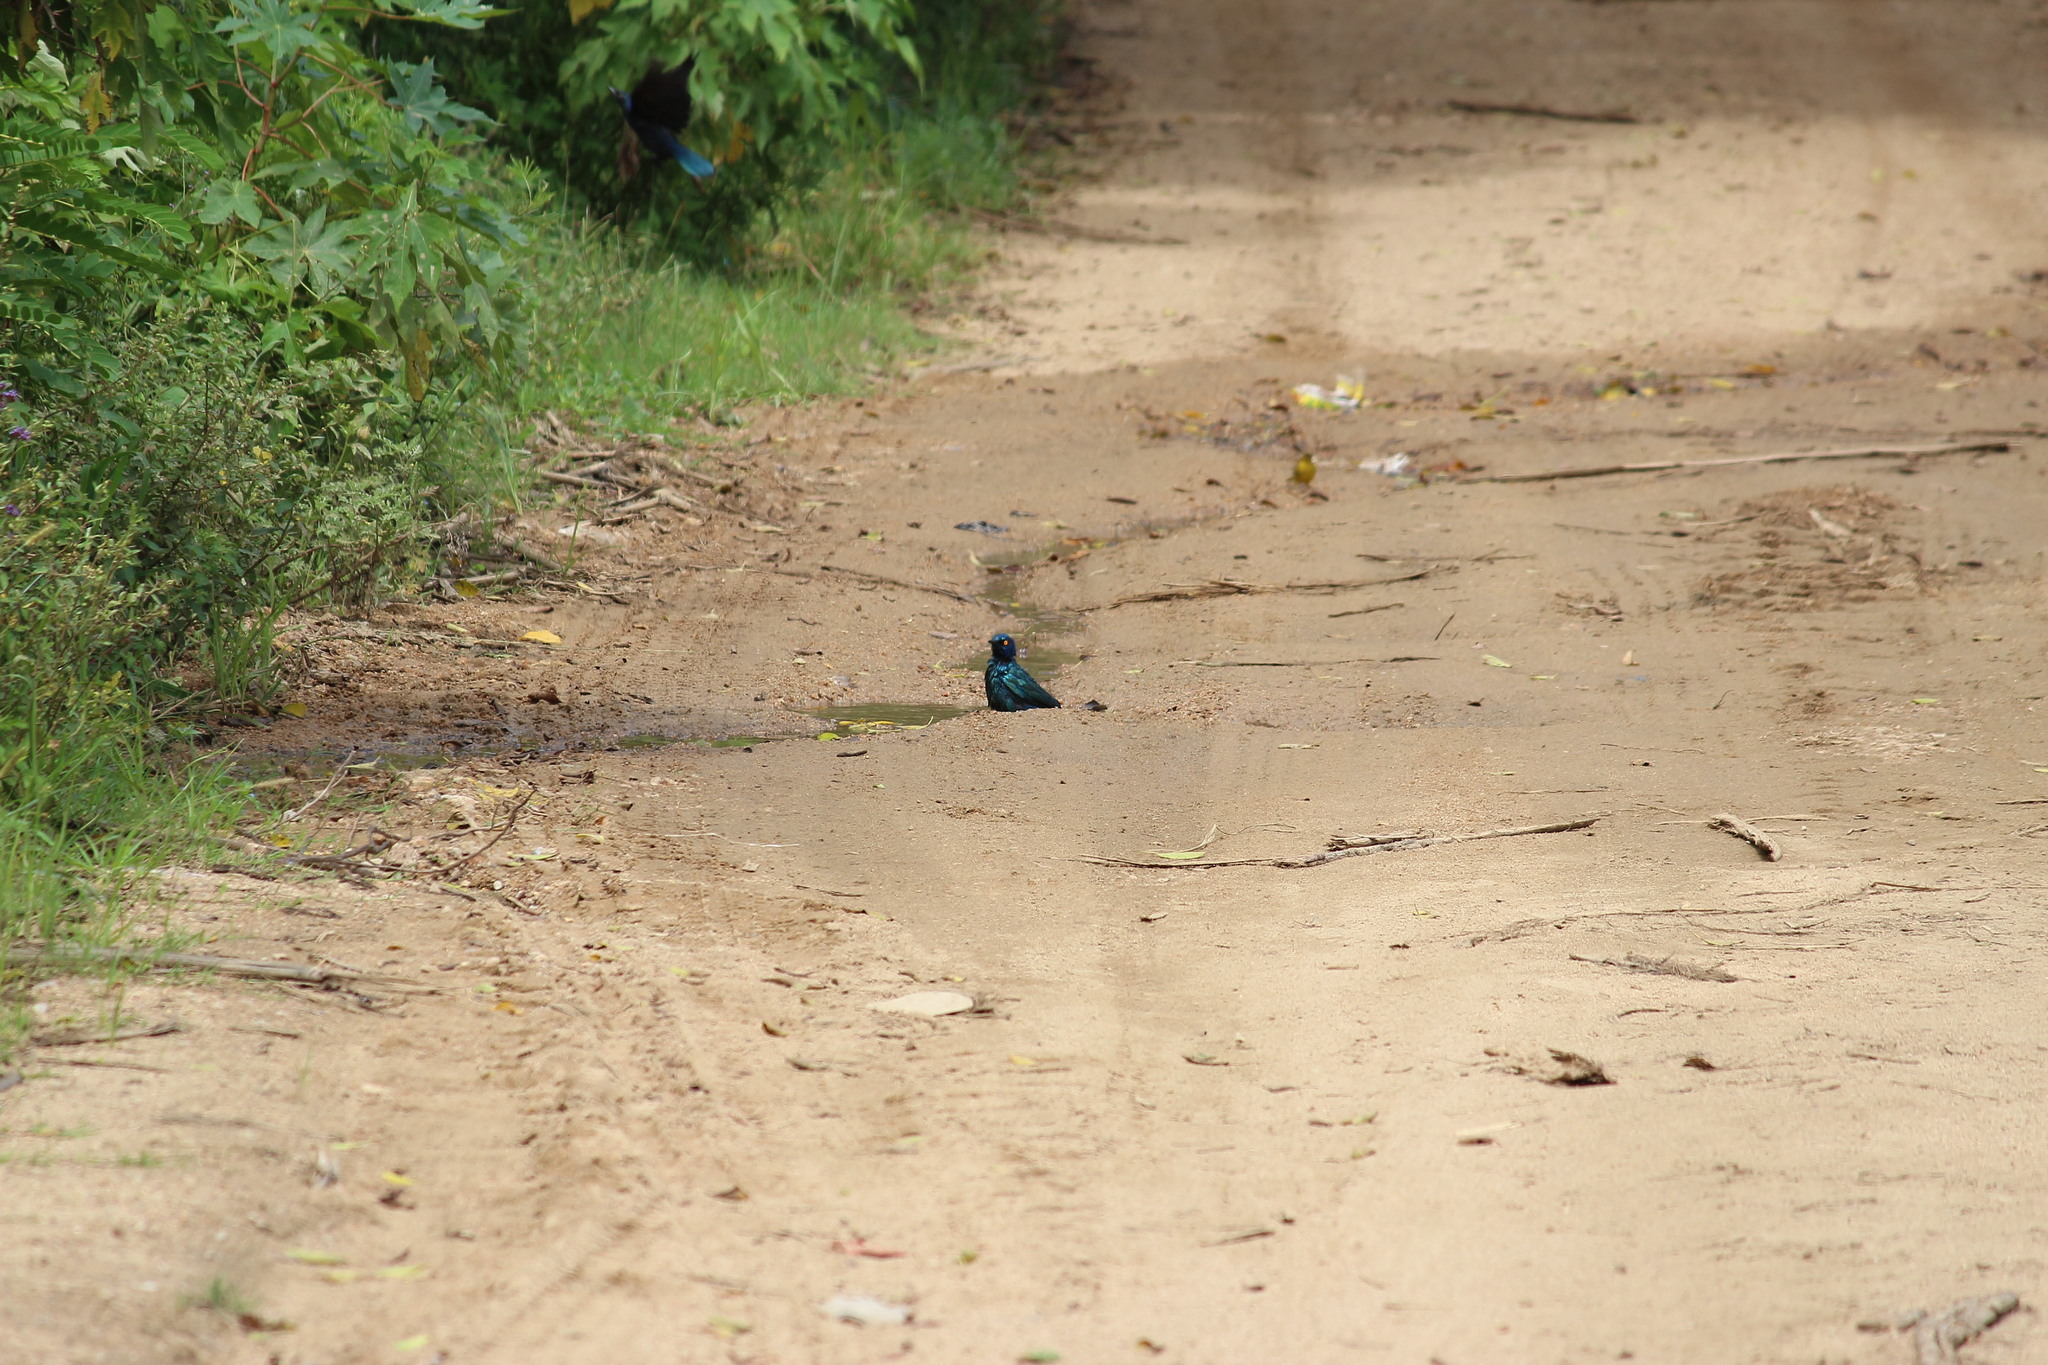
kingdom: Animalia
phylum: Chordata
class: Aves
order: Passeriformes
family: Sturnidae
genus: Lamprotornis
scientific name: Lamprotornis nitens
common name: Cape starling
